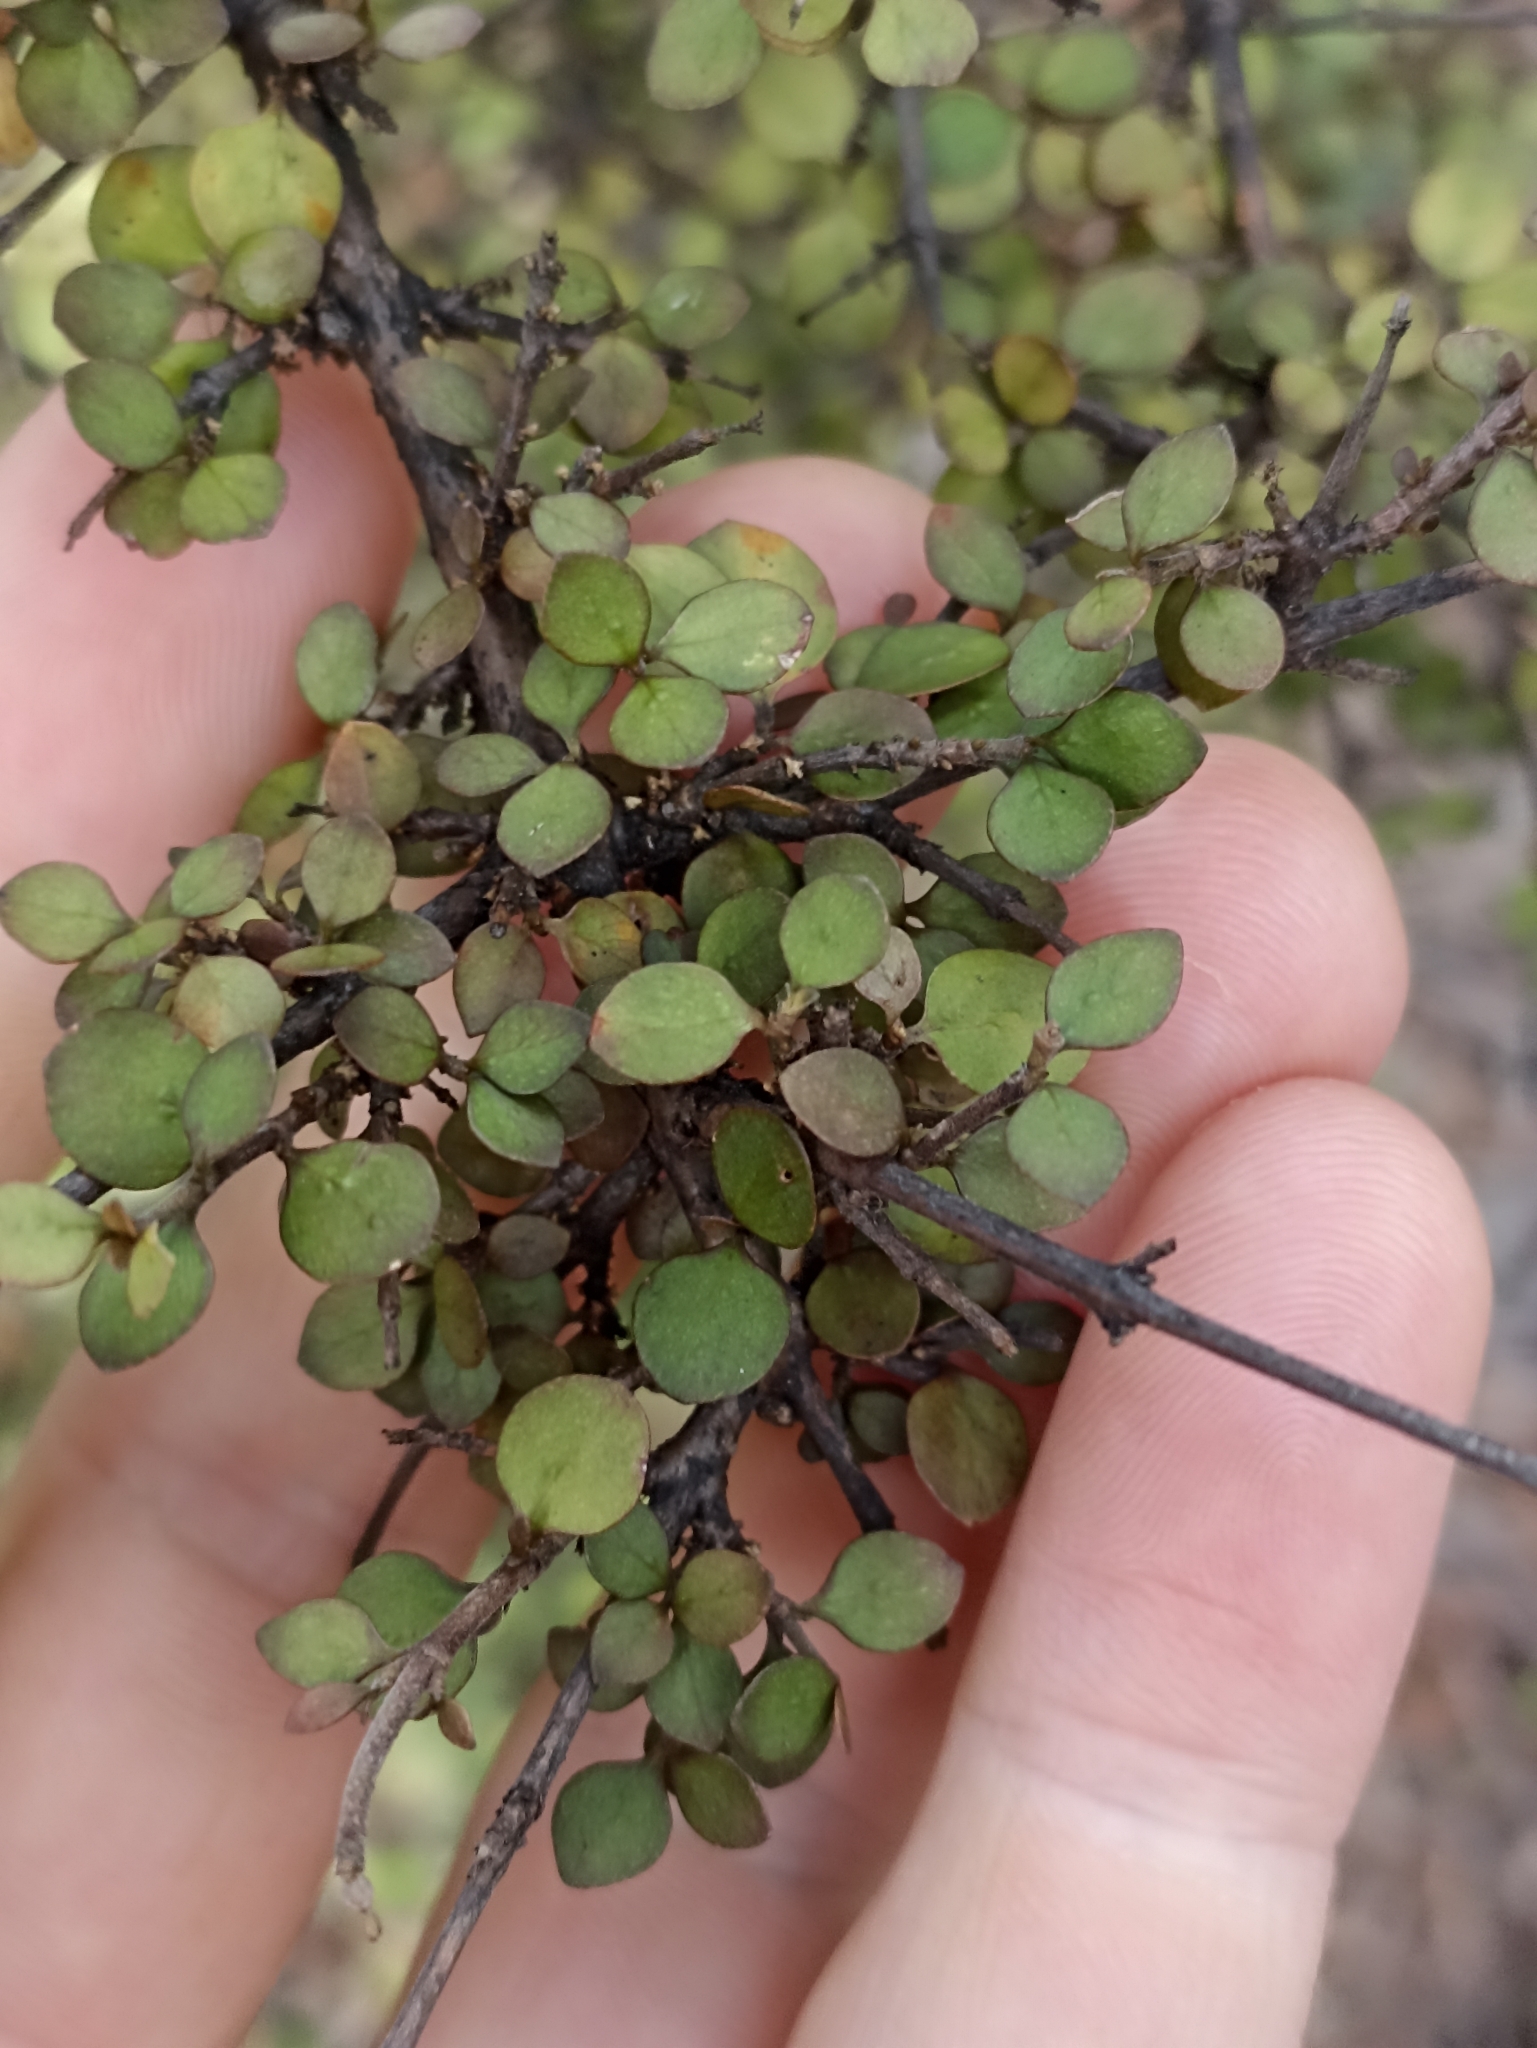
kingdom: Plantae
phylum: Tracheophyta
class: Magnoliopsida
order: Gentianales
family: Rubiaceae
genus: Coprosma
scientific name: Coprosma rhamnoides
